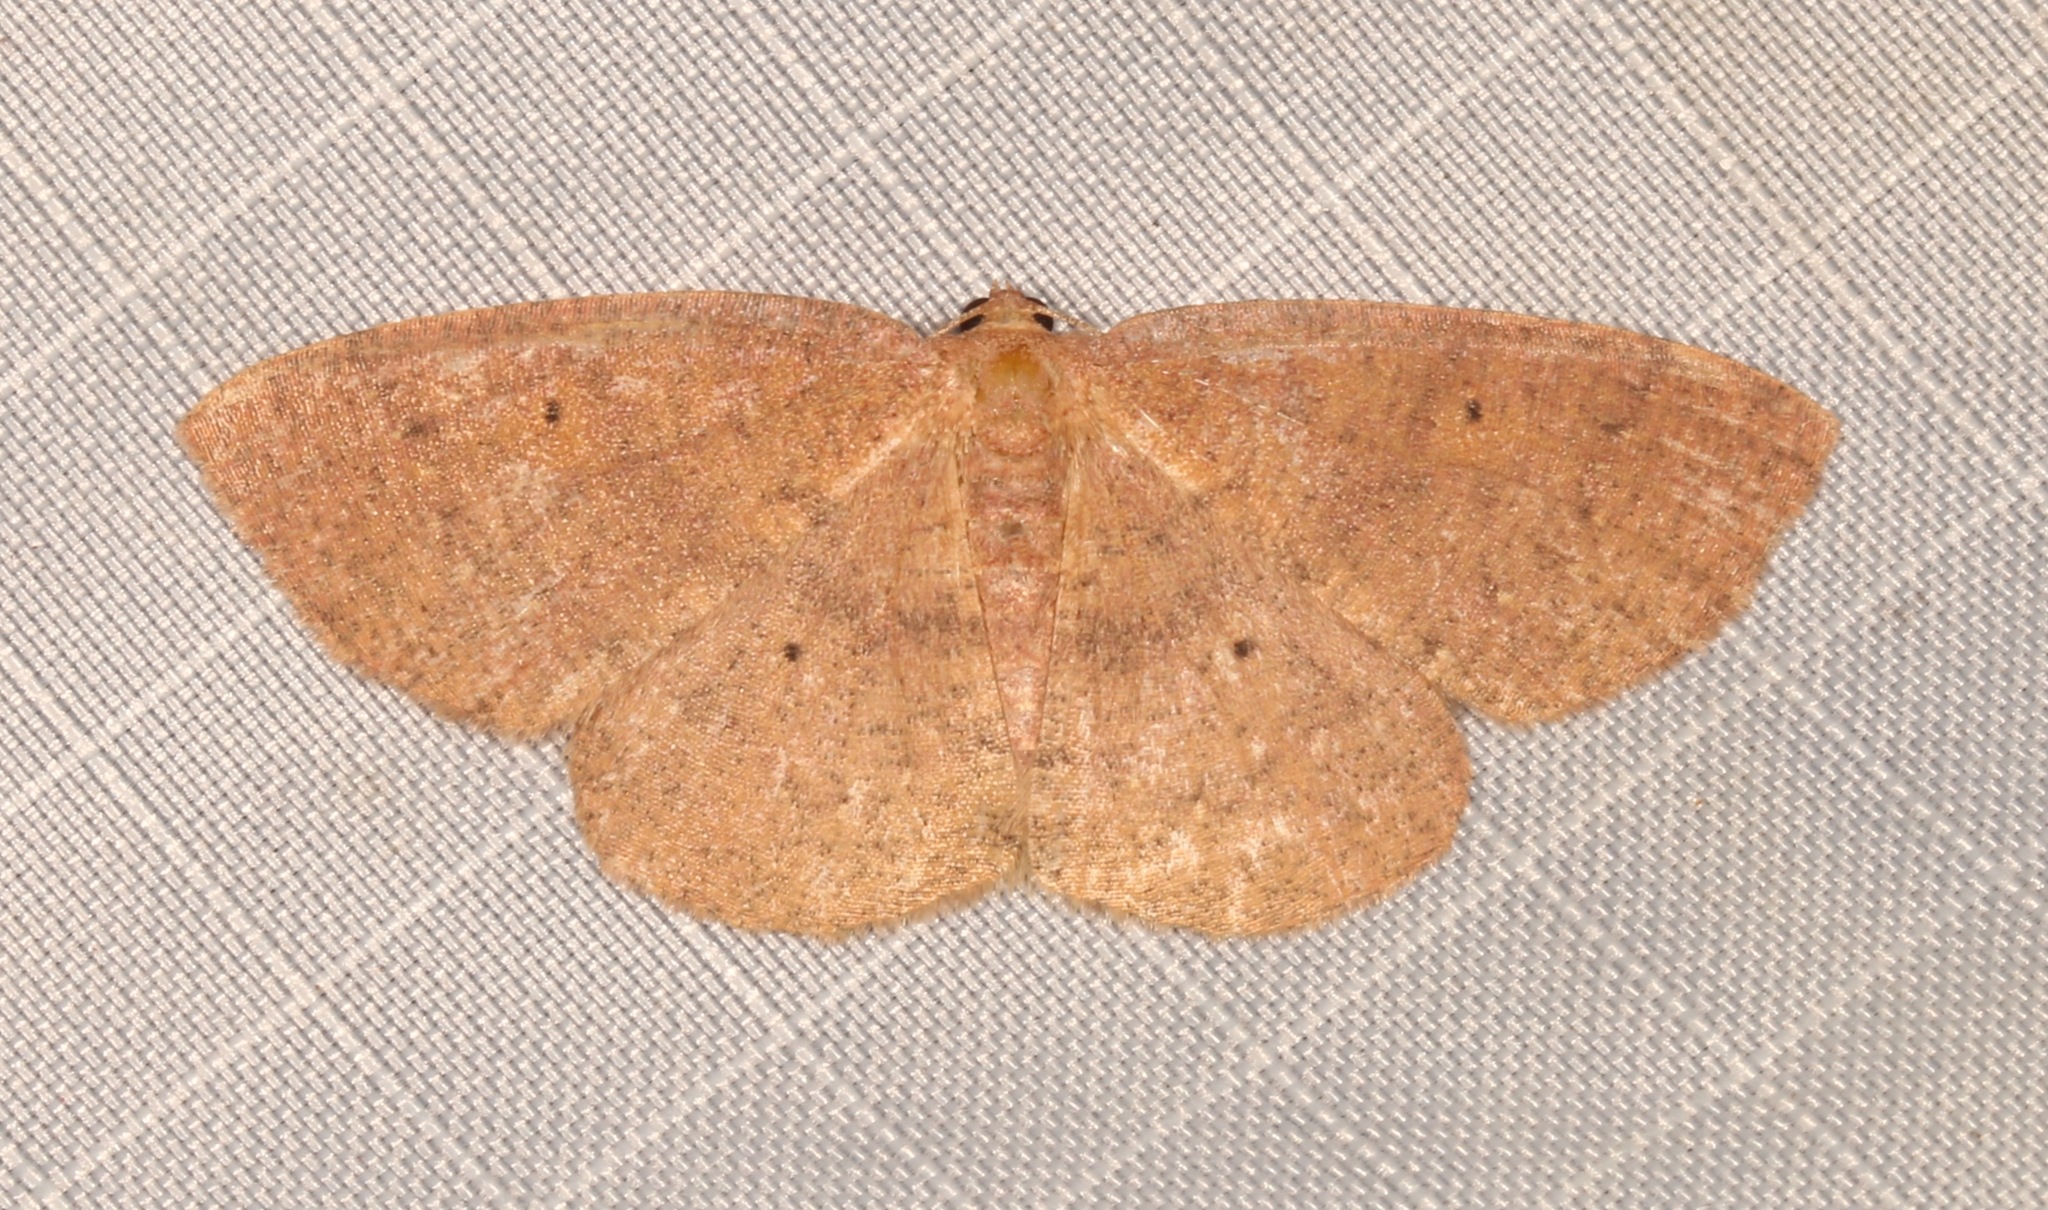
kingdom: Animalia
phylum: Arthropoda
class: Insecta
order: Lepidoptera
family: Geometridae
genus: Ilexia
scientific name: Ilexia intractata
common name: Black-dotted ruddy moth
